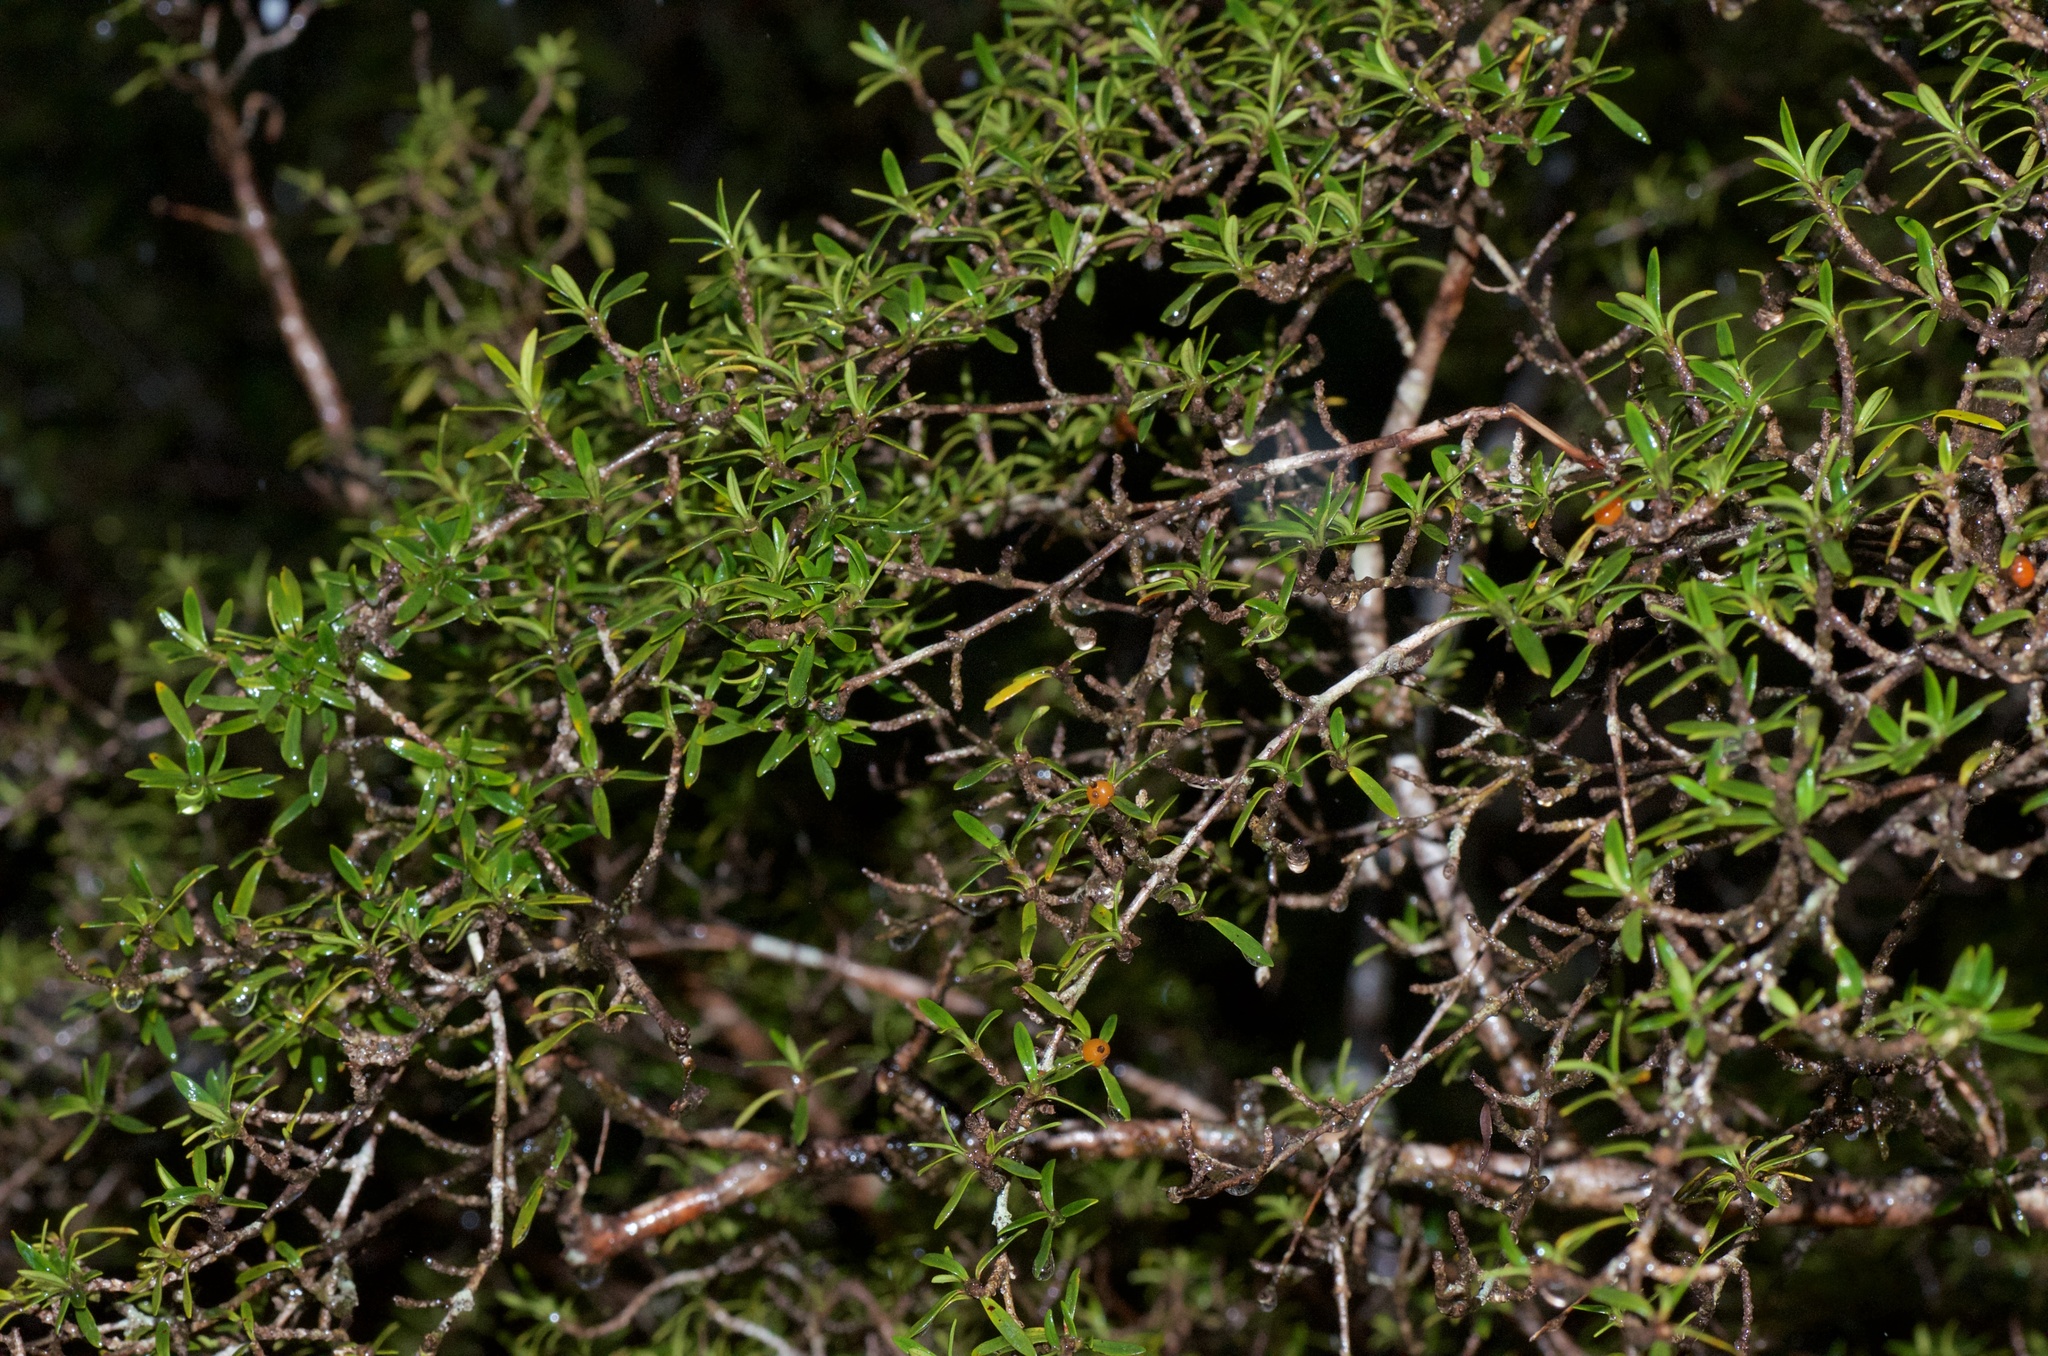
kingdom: Plantae
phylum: Tracheophyta
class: Magnoliopsida
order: Gentianales
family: Rubiaceae
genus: Coprosma
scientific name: Coprosma pseudocuneata
